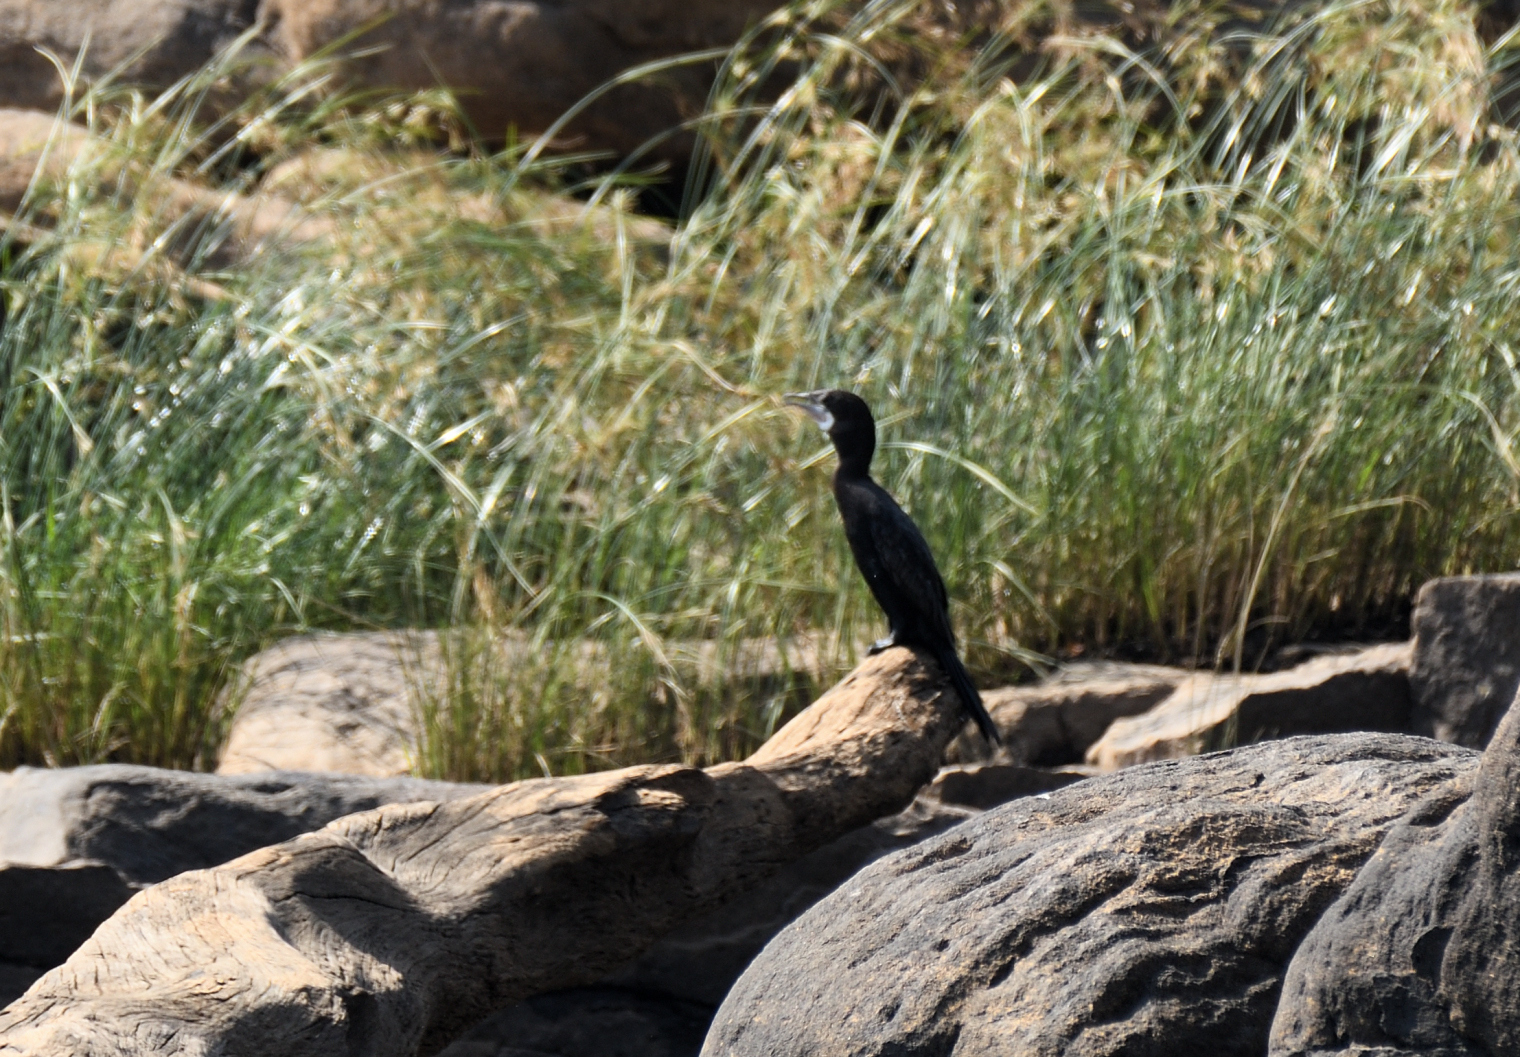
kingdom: Animalia
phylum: Chordata
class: Aves
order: Suliformes
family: Phalacrocoracidae
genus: Microcarbo
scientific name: Microcarbo niger
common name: Little cormorant
